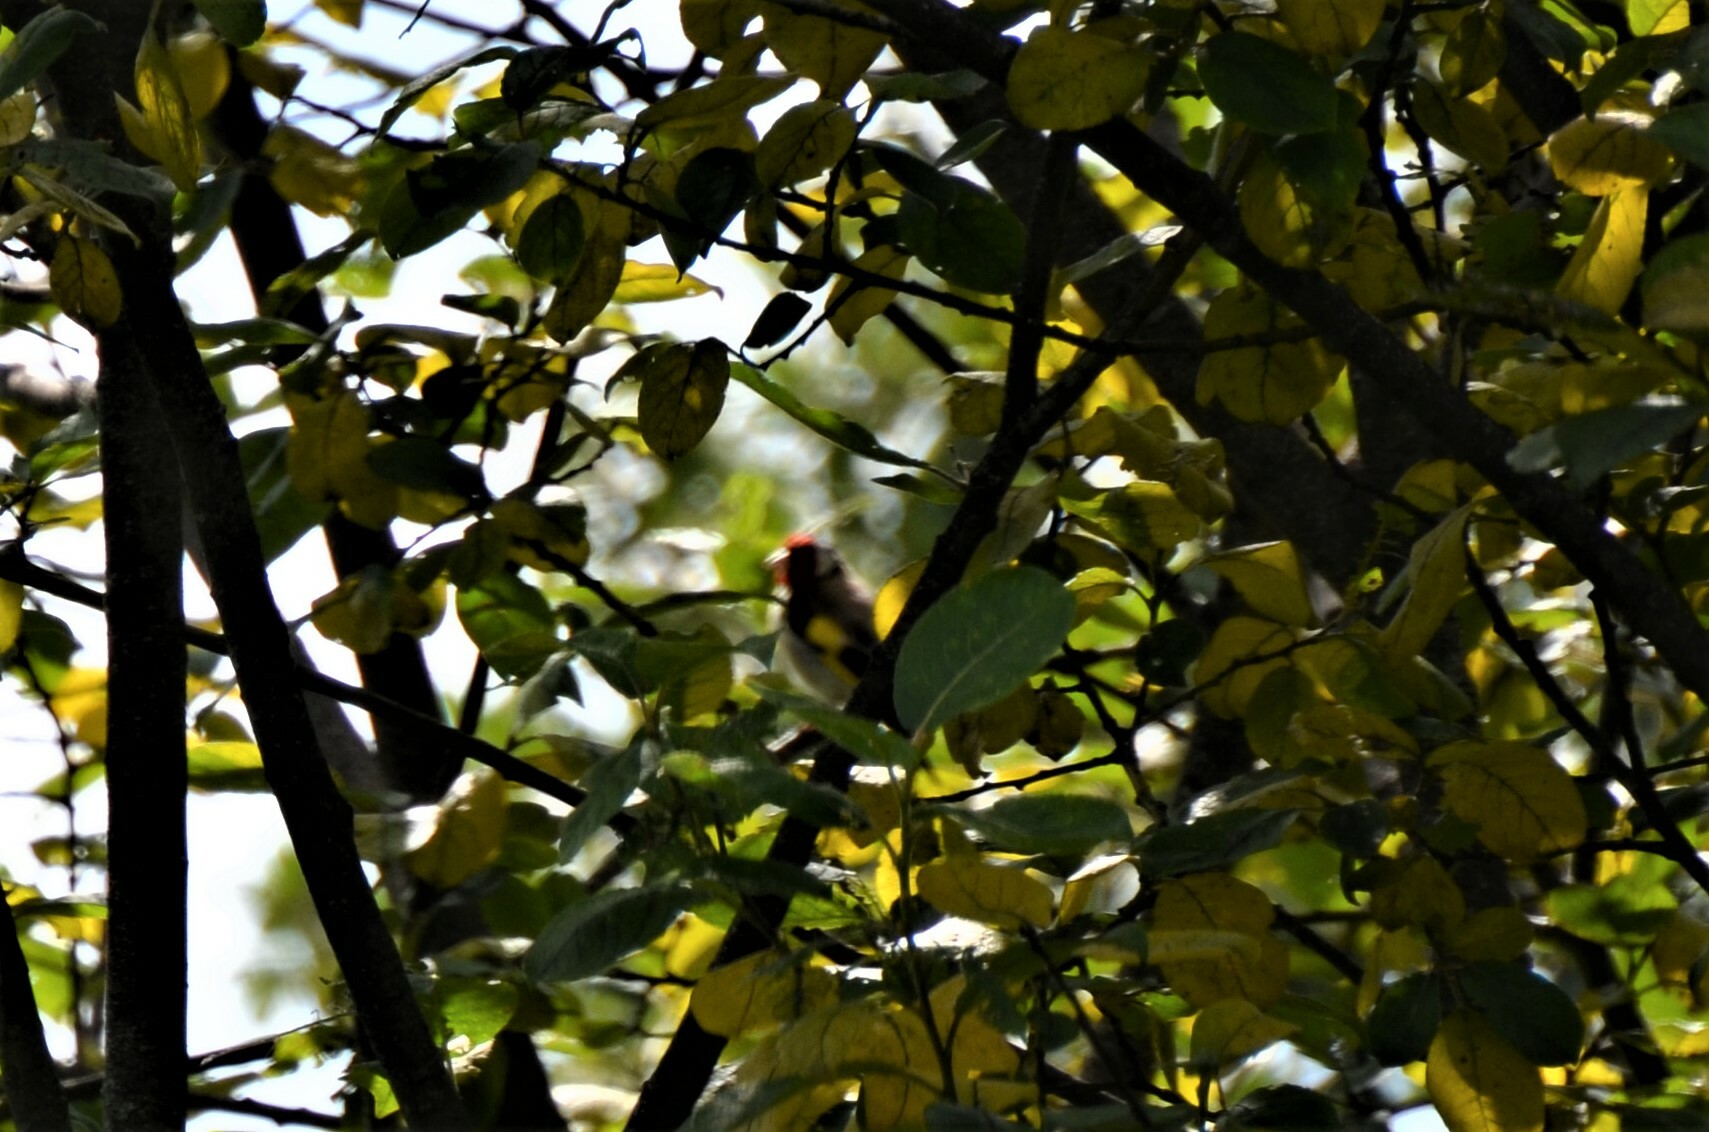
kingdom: Animalia
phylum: Chordata
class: Aves
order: Passeriformes
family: Fringillidae
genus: Carduelis
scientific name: Carduelis carduelis
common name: European goldfinch
